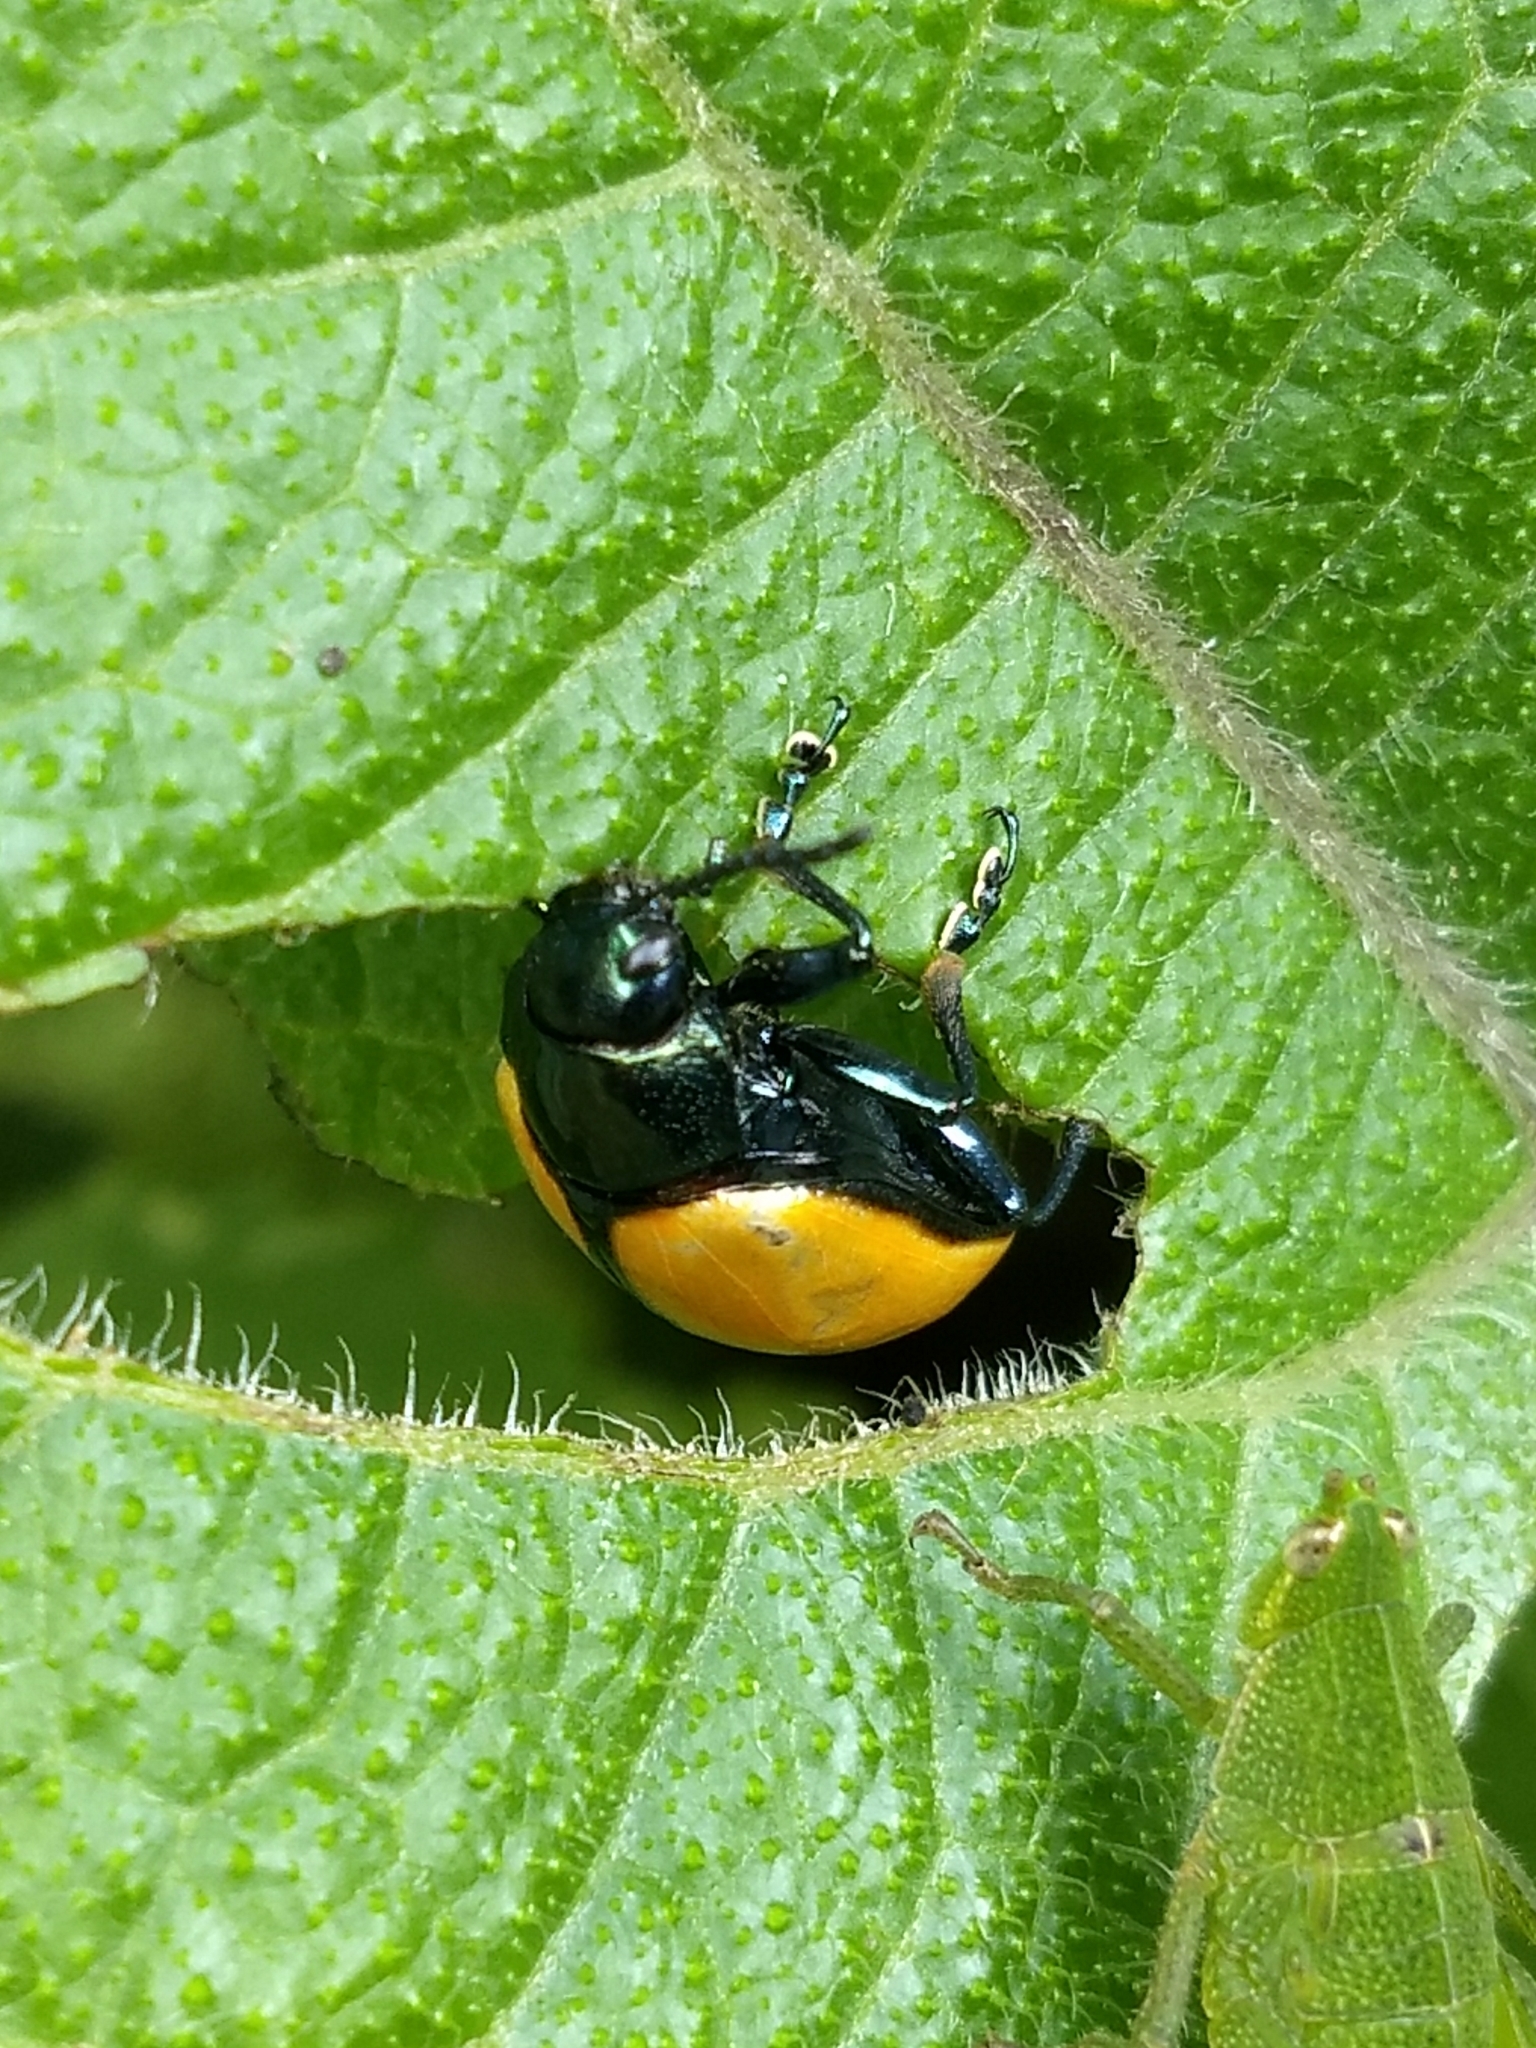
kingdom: Animalia
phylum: Arthropoda
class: Insecta
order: Coleoptera
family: Chrysomelidae
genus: Leptinotarsa
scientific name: Leptinotarsa
